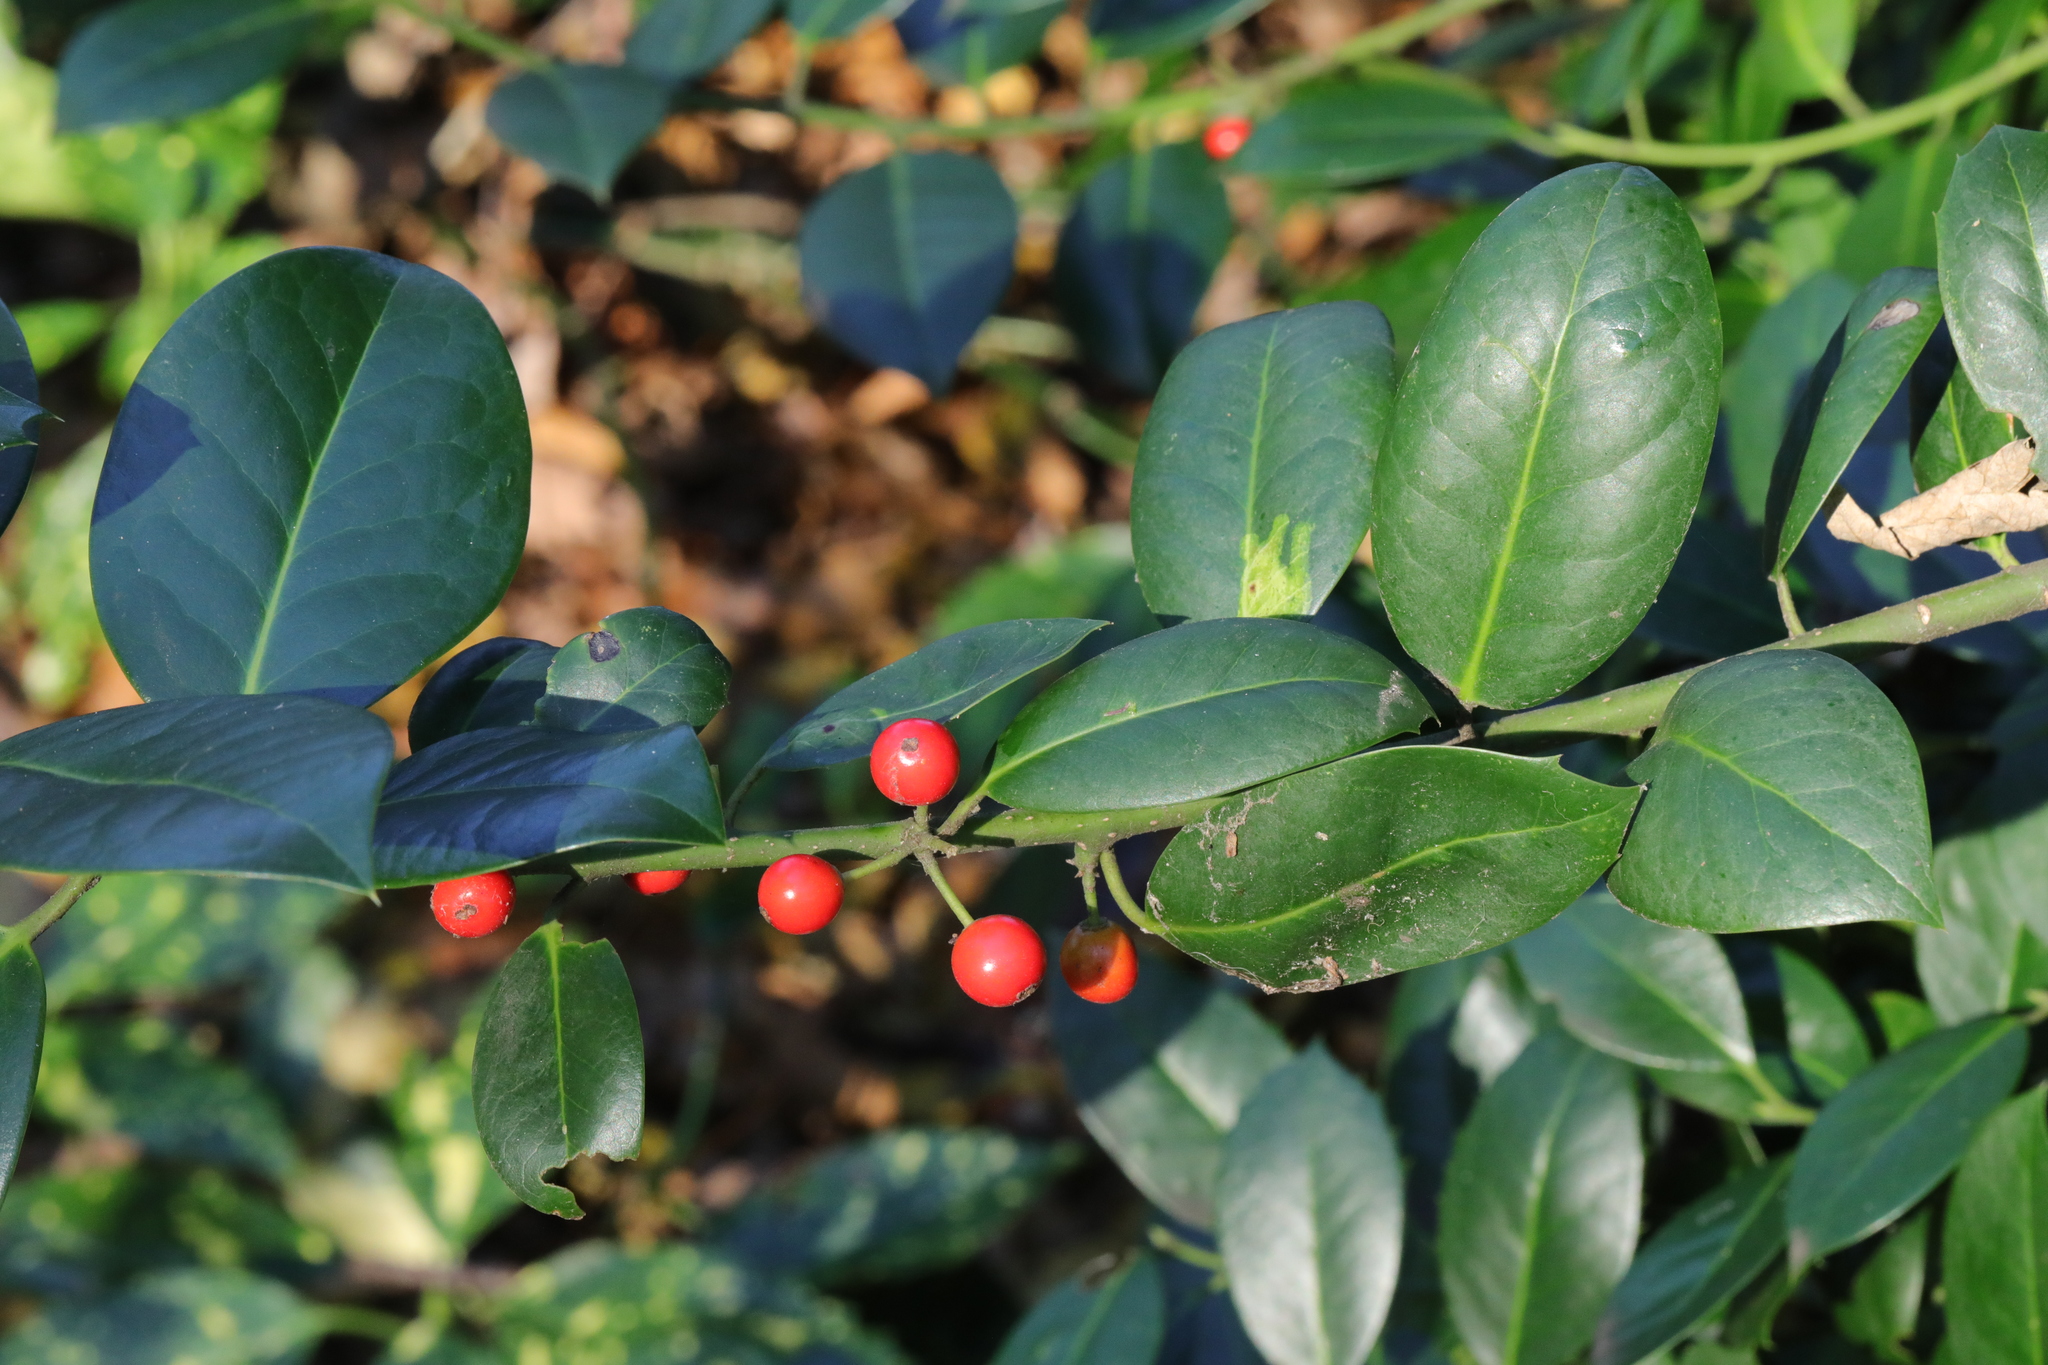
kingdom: Plantae
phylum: Tracheophyta
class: Magnoliopsida
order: Aquifoliales
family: Aquifoliaceae
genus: Ilex
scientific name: Ilex aquifolium
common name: English holly
